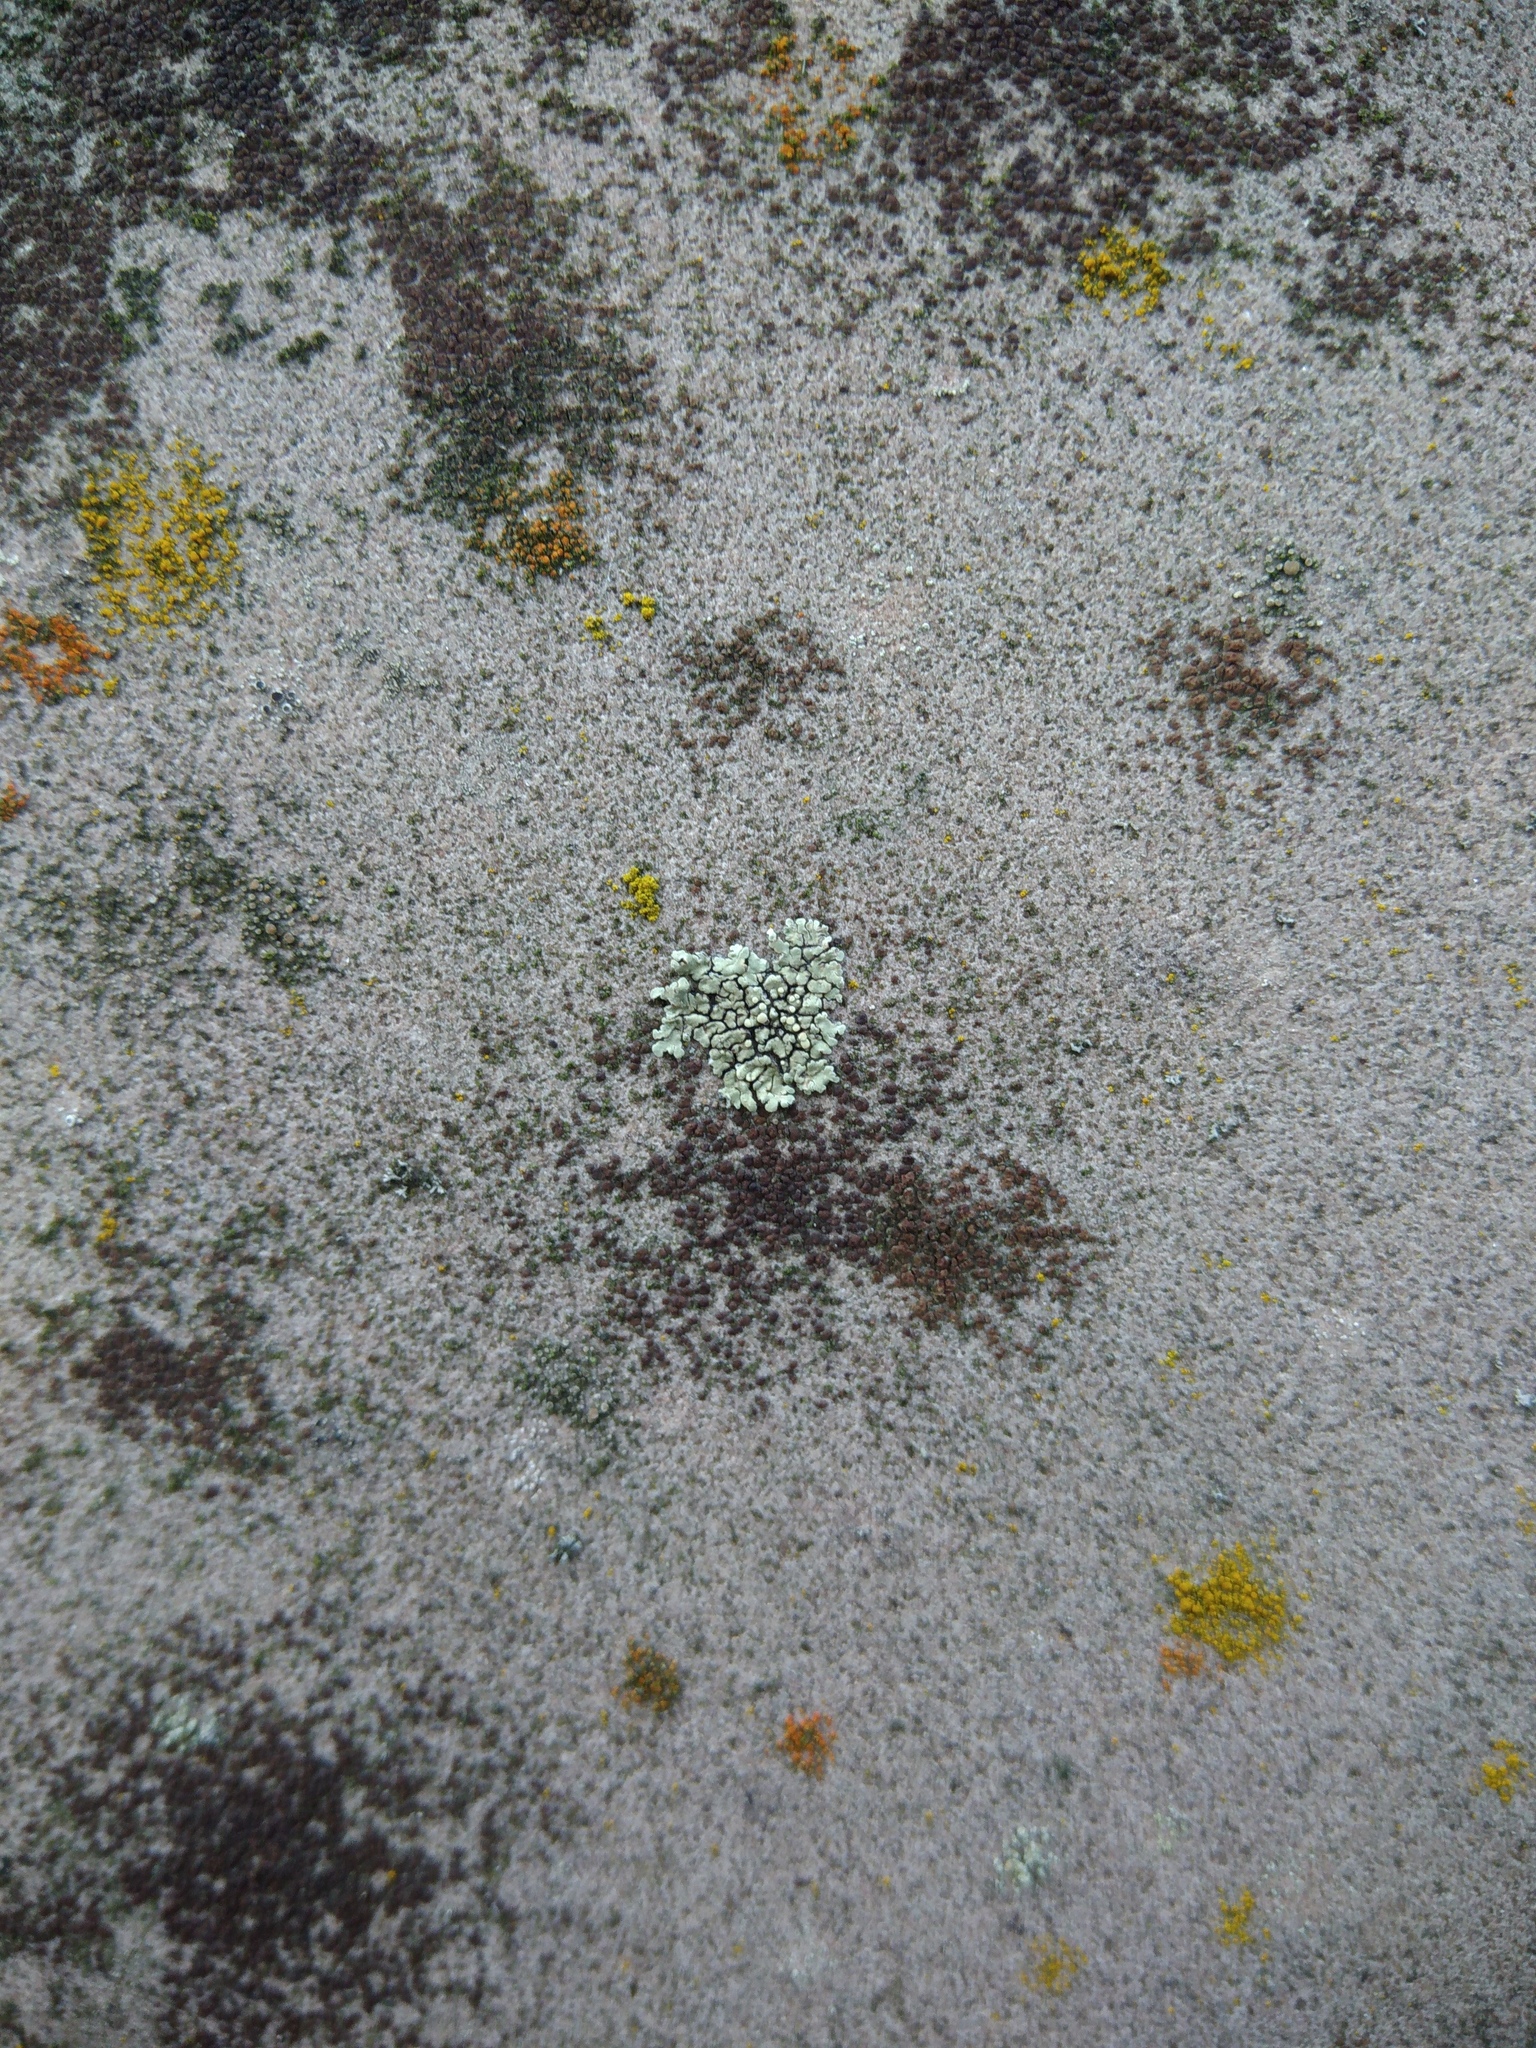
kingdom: Fungi
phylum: Ascomycota
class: Lecanoromycetes
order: Lecanorales
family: Lecanoraceae
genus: Protoparmeliopsis
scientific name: Protoparmeliopsis muralis
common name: Stonewall rim lichen
